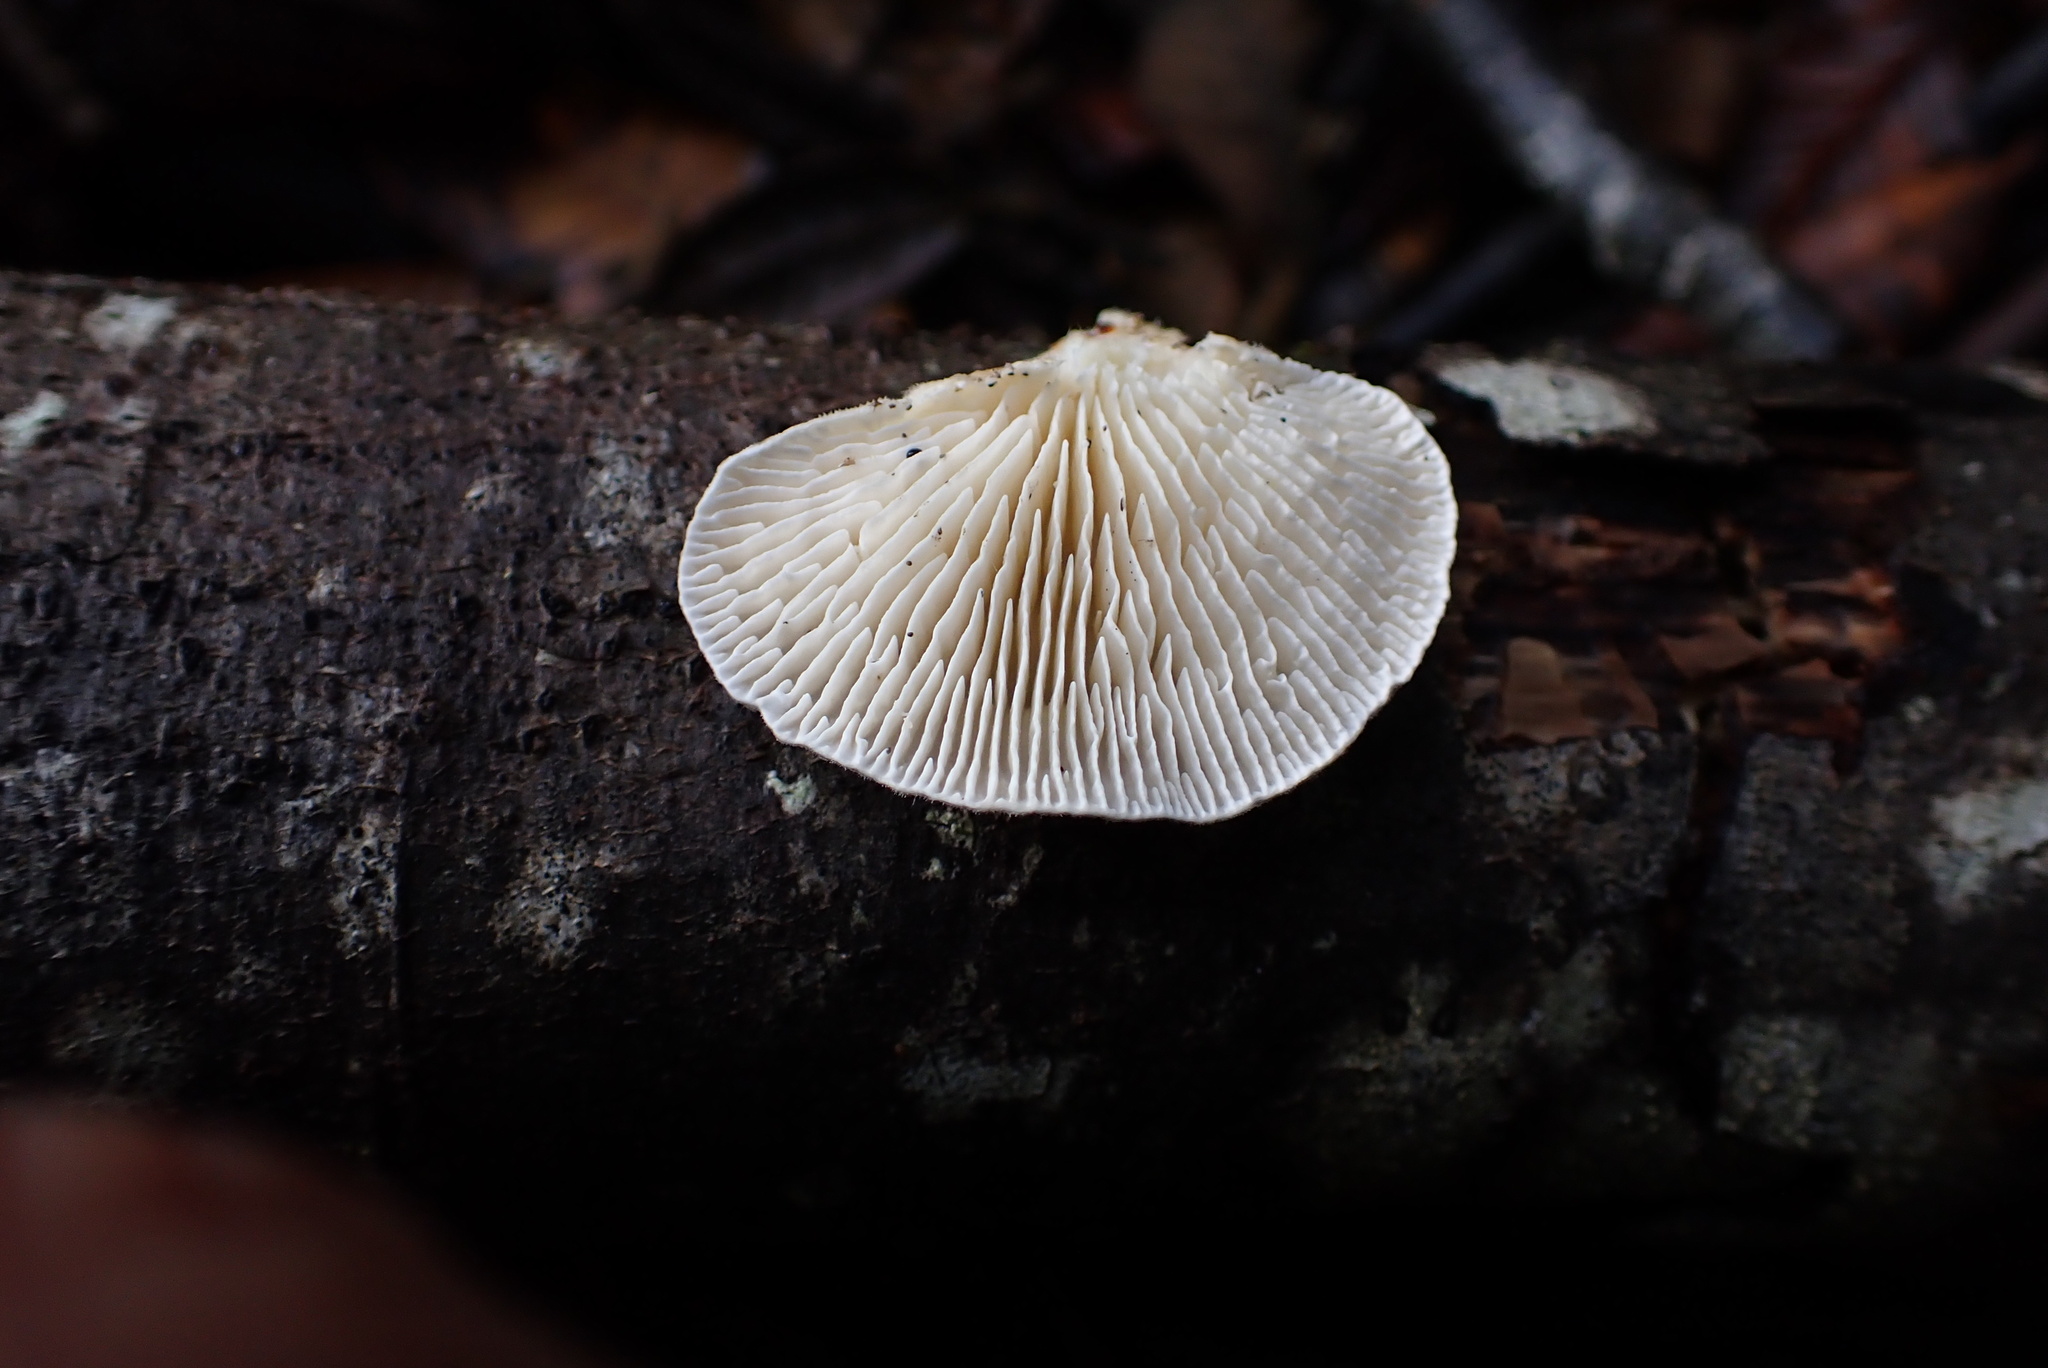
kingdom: Fungi
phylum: Basidiomycota
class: Agaricomycetes
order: Polyporales
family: Polyporaceae
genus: Lenzites
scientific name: Lenzites betulinus
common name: Birch mazegill
